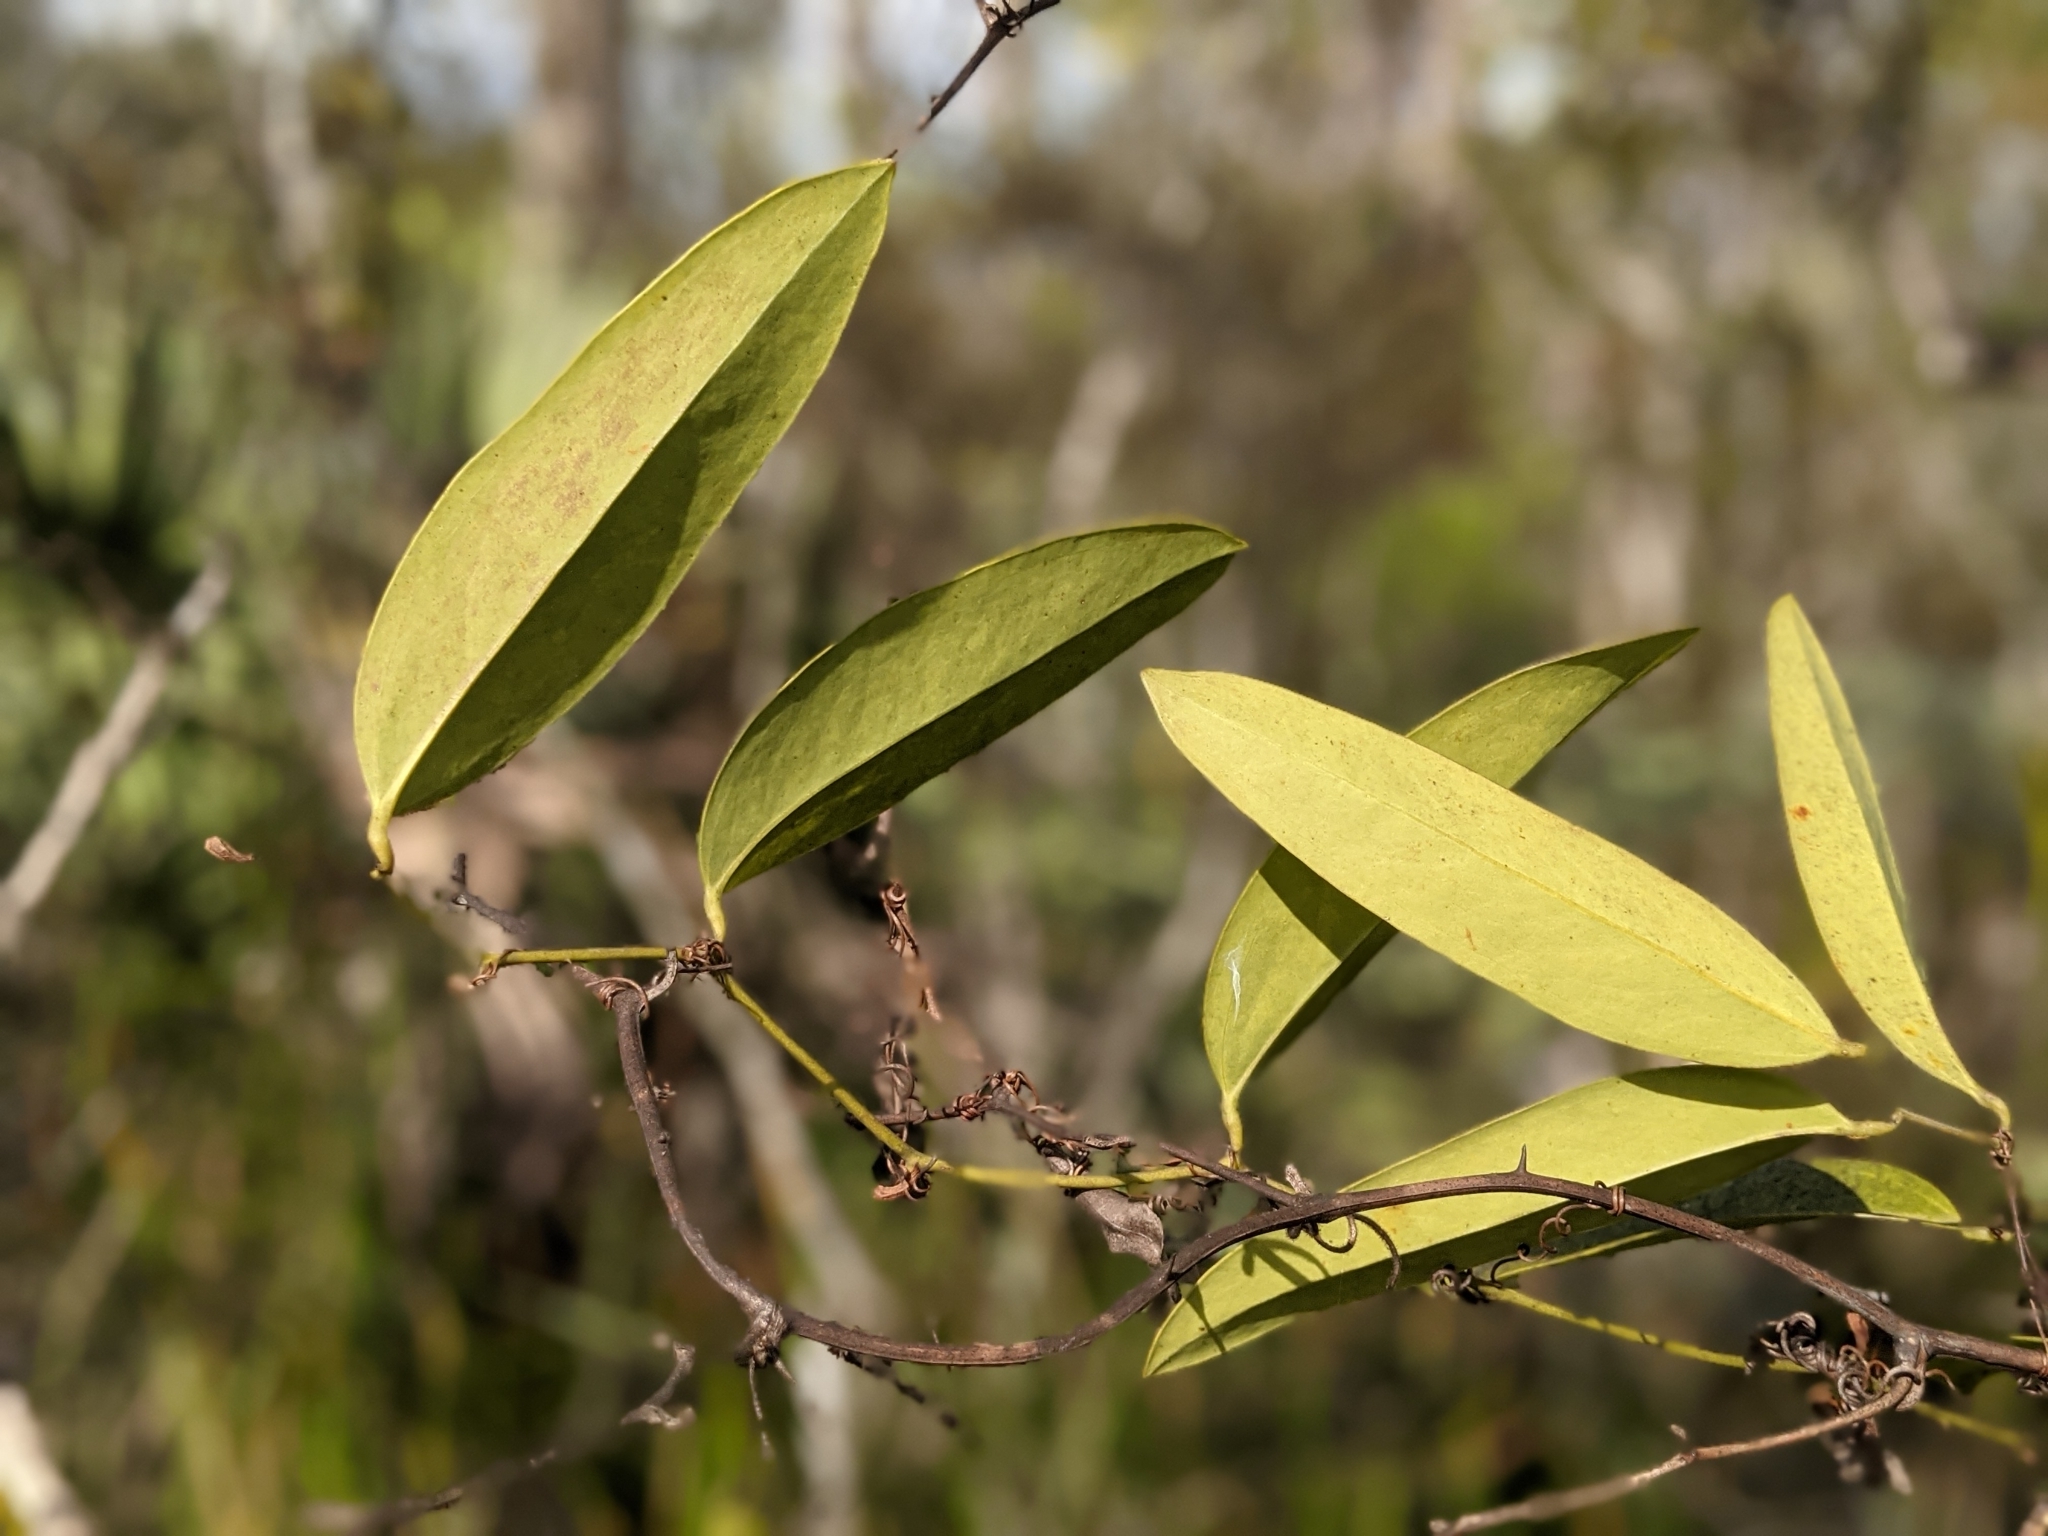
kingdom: Plantae
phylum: Tracheophyta
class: Liliopsida
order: Liliales
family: Smilacaceae
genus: Smilax
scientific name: Smilax laurifolia
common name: Bamboovine
